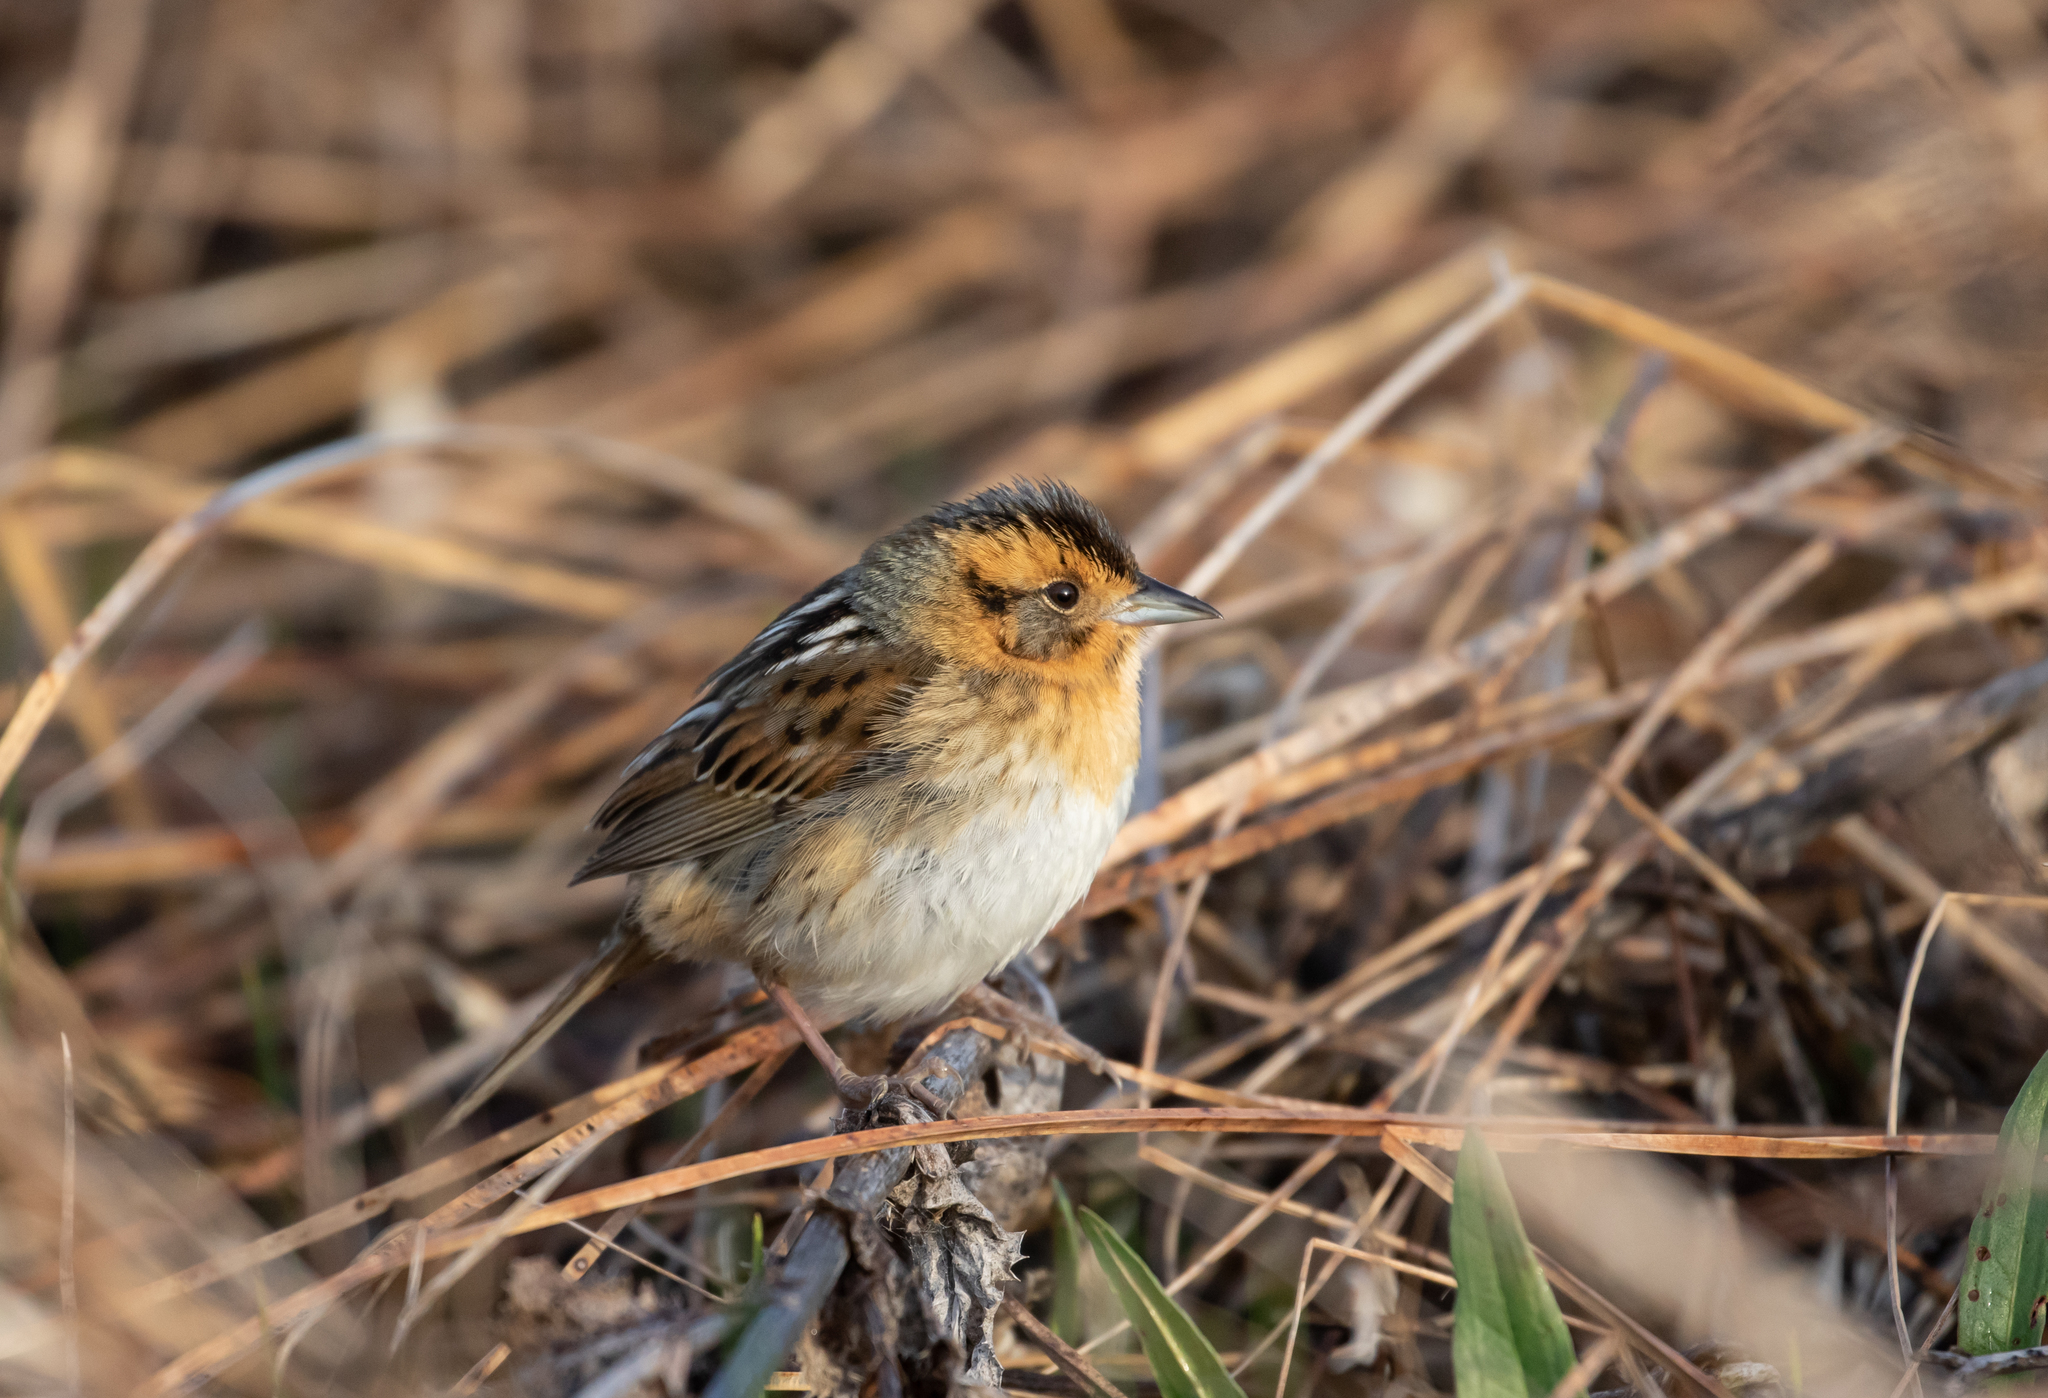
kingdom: Animalia
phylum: Chordata
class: Aves
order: Passeriformes
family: Passerellidae
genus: Ammospiza
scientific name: Ammospiza nelsoni
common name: Nelson's sparrow
